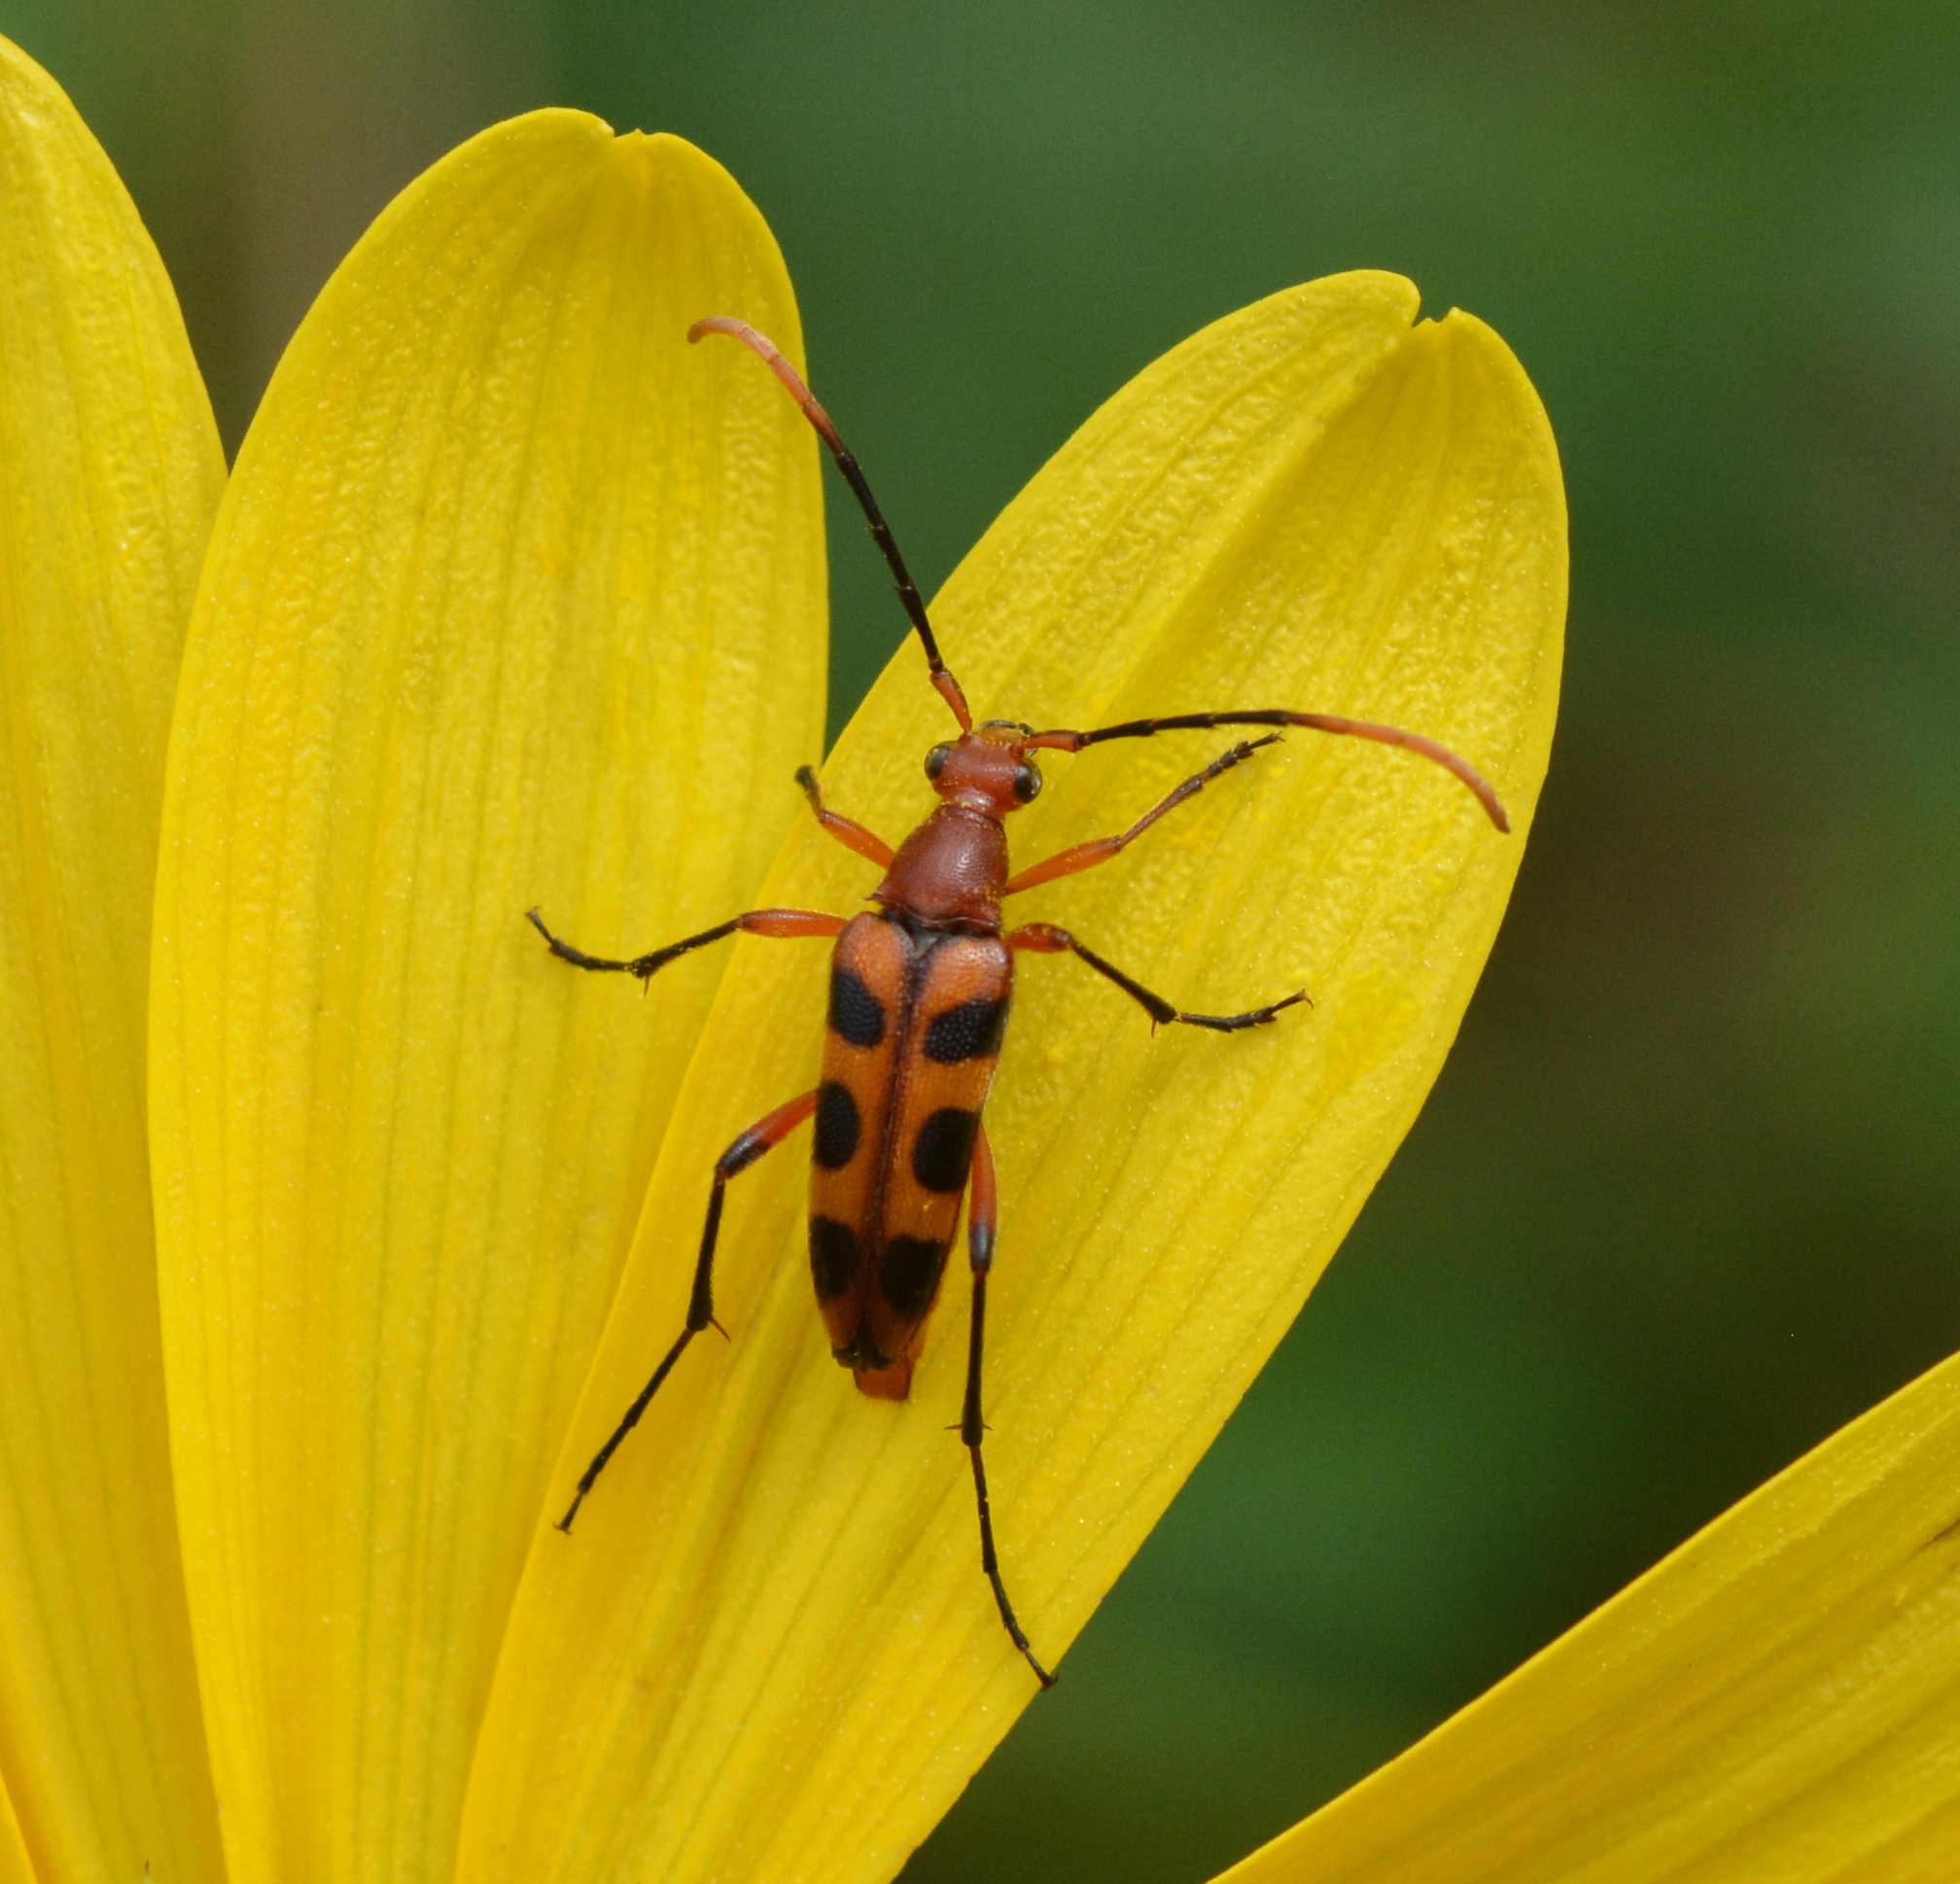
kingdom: Animalia
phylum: Arthropoda
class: Insecta
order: Coleoptera
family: Cerambycidae
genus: Strangalia
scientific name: Strangalia sexnotata
